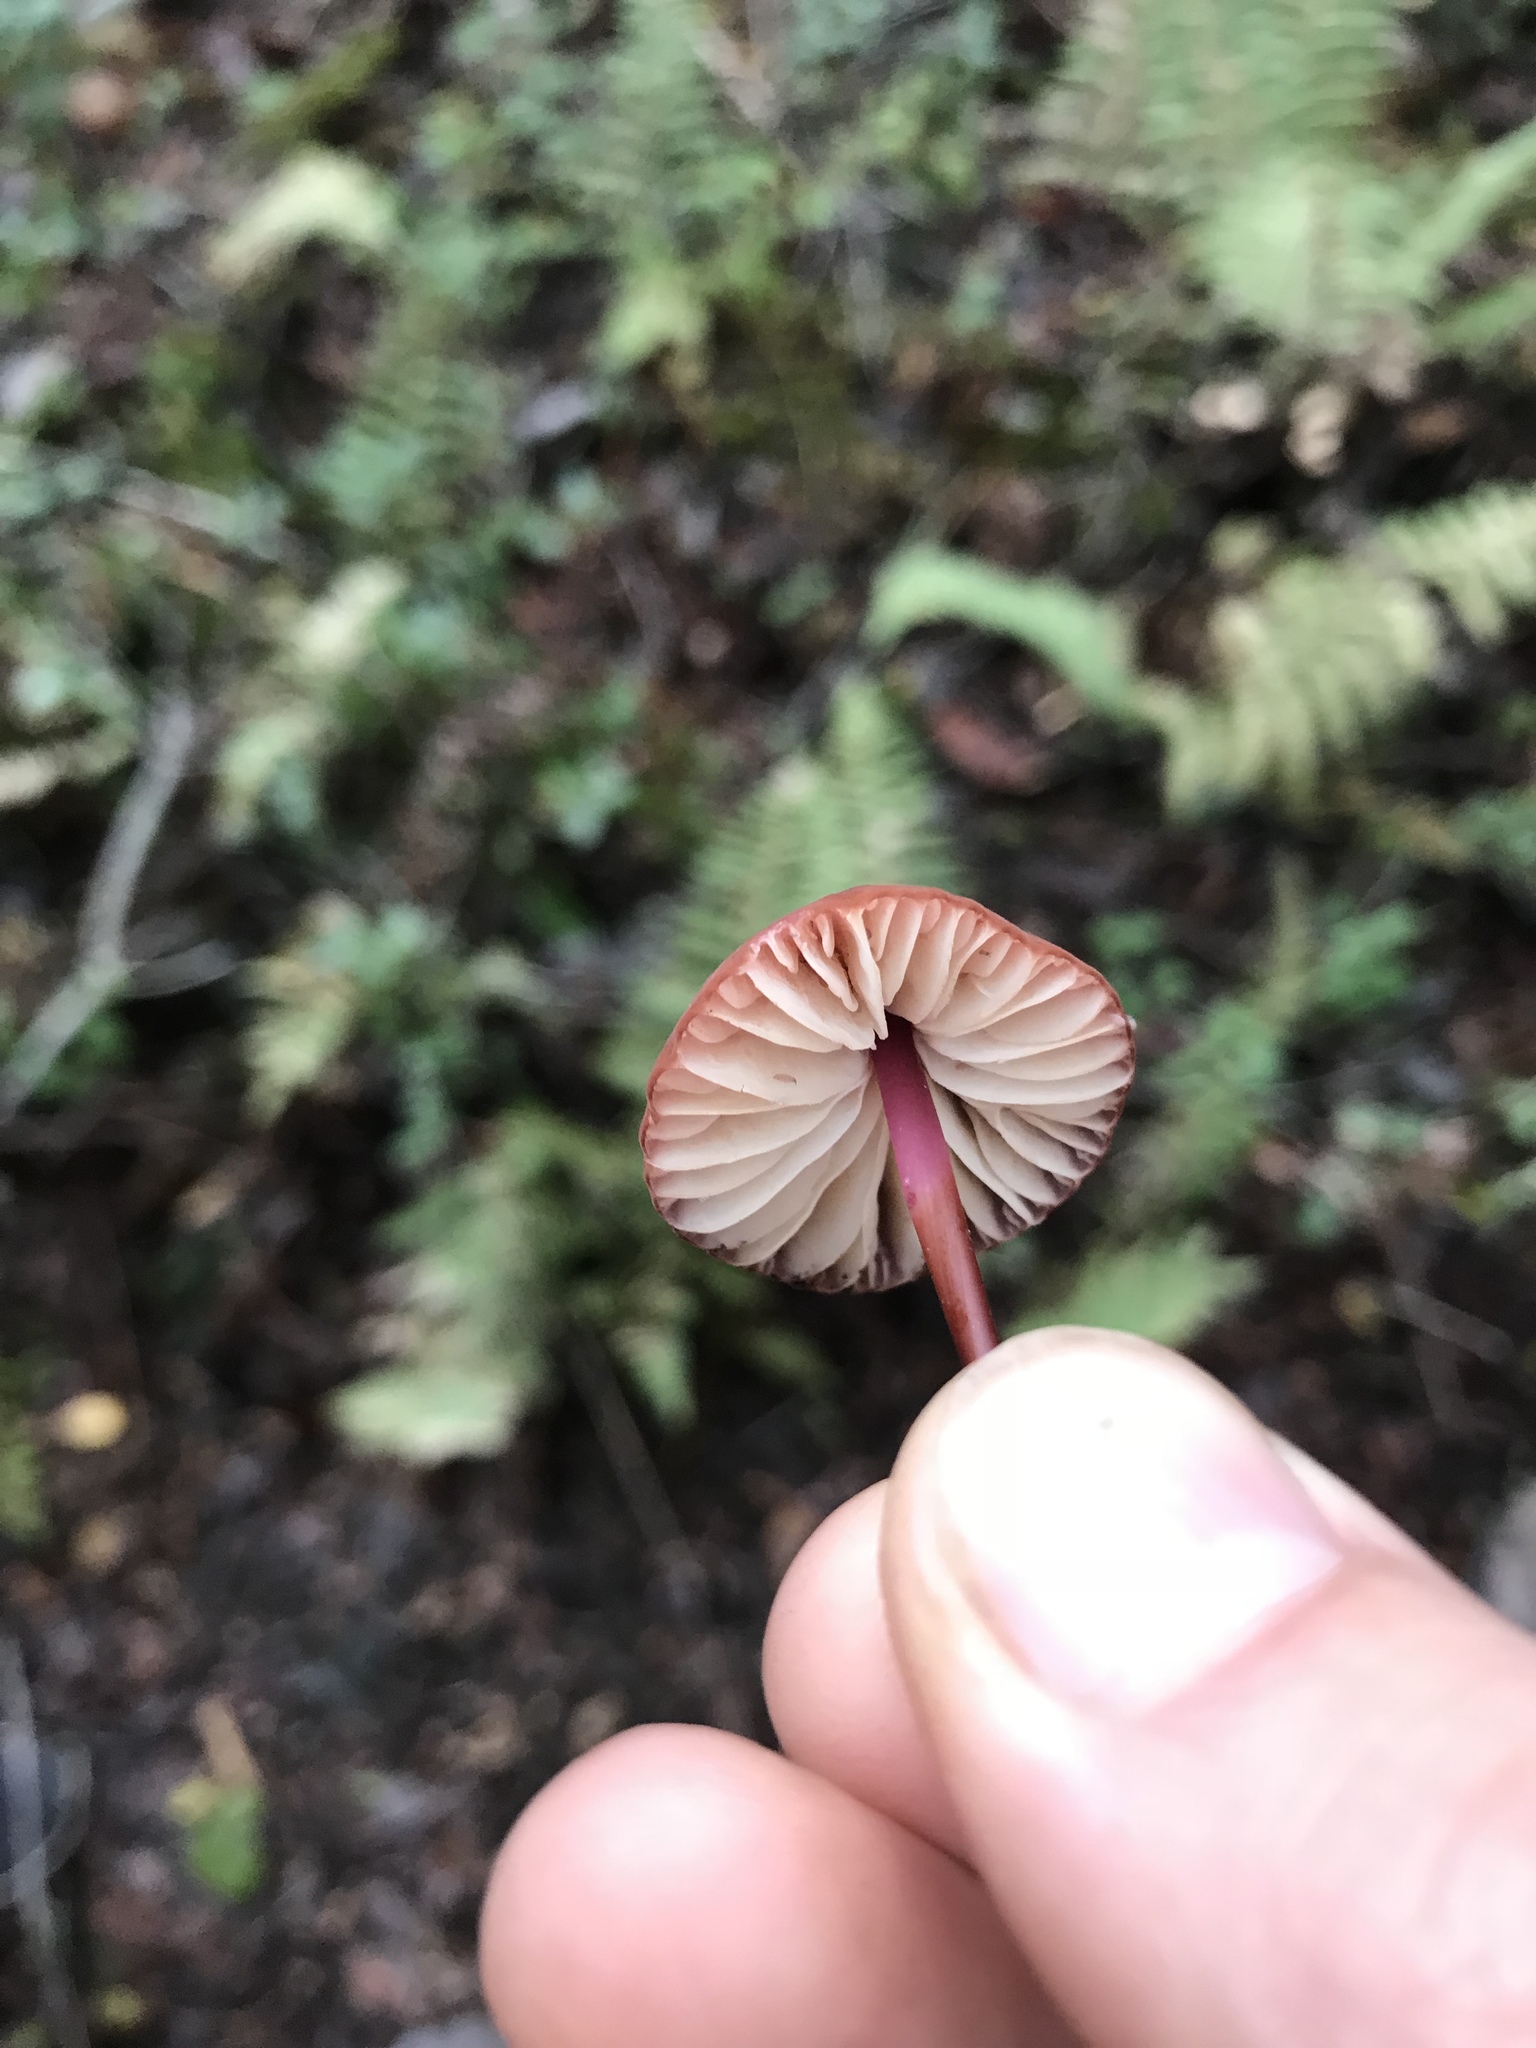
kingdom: Fungi
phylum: Basidiomycota
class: Agaricomycetes
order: Agaricales
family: Marasmiaceae
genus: Marasmius
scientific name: Marasmius plicatulus
